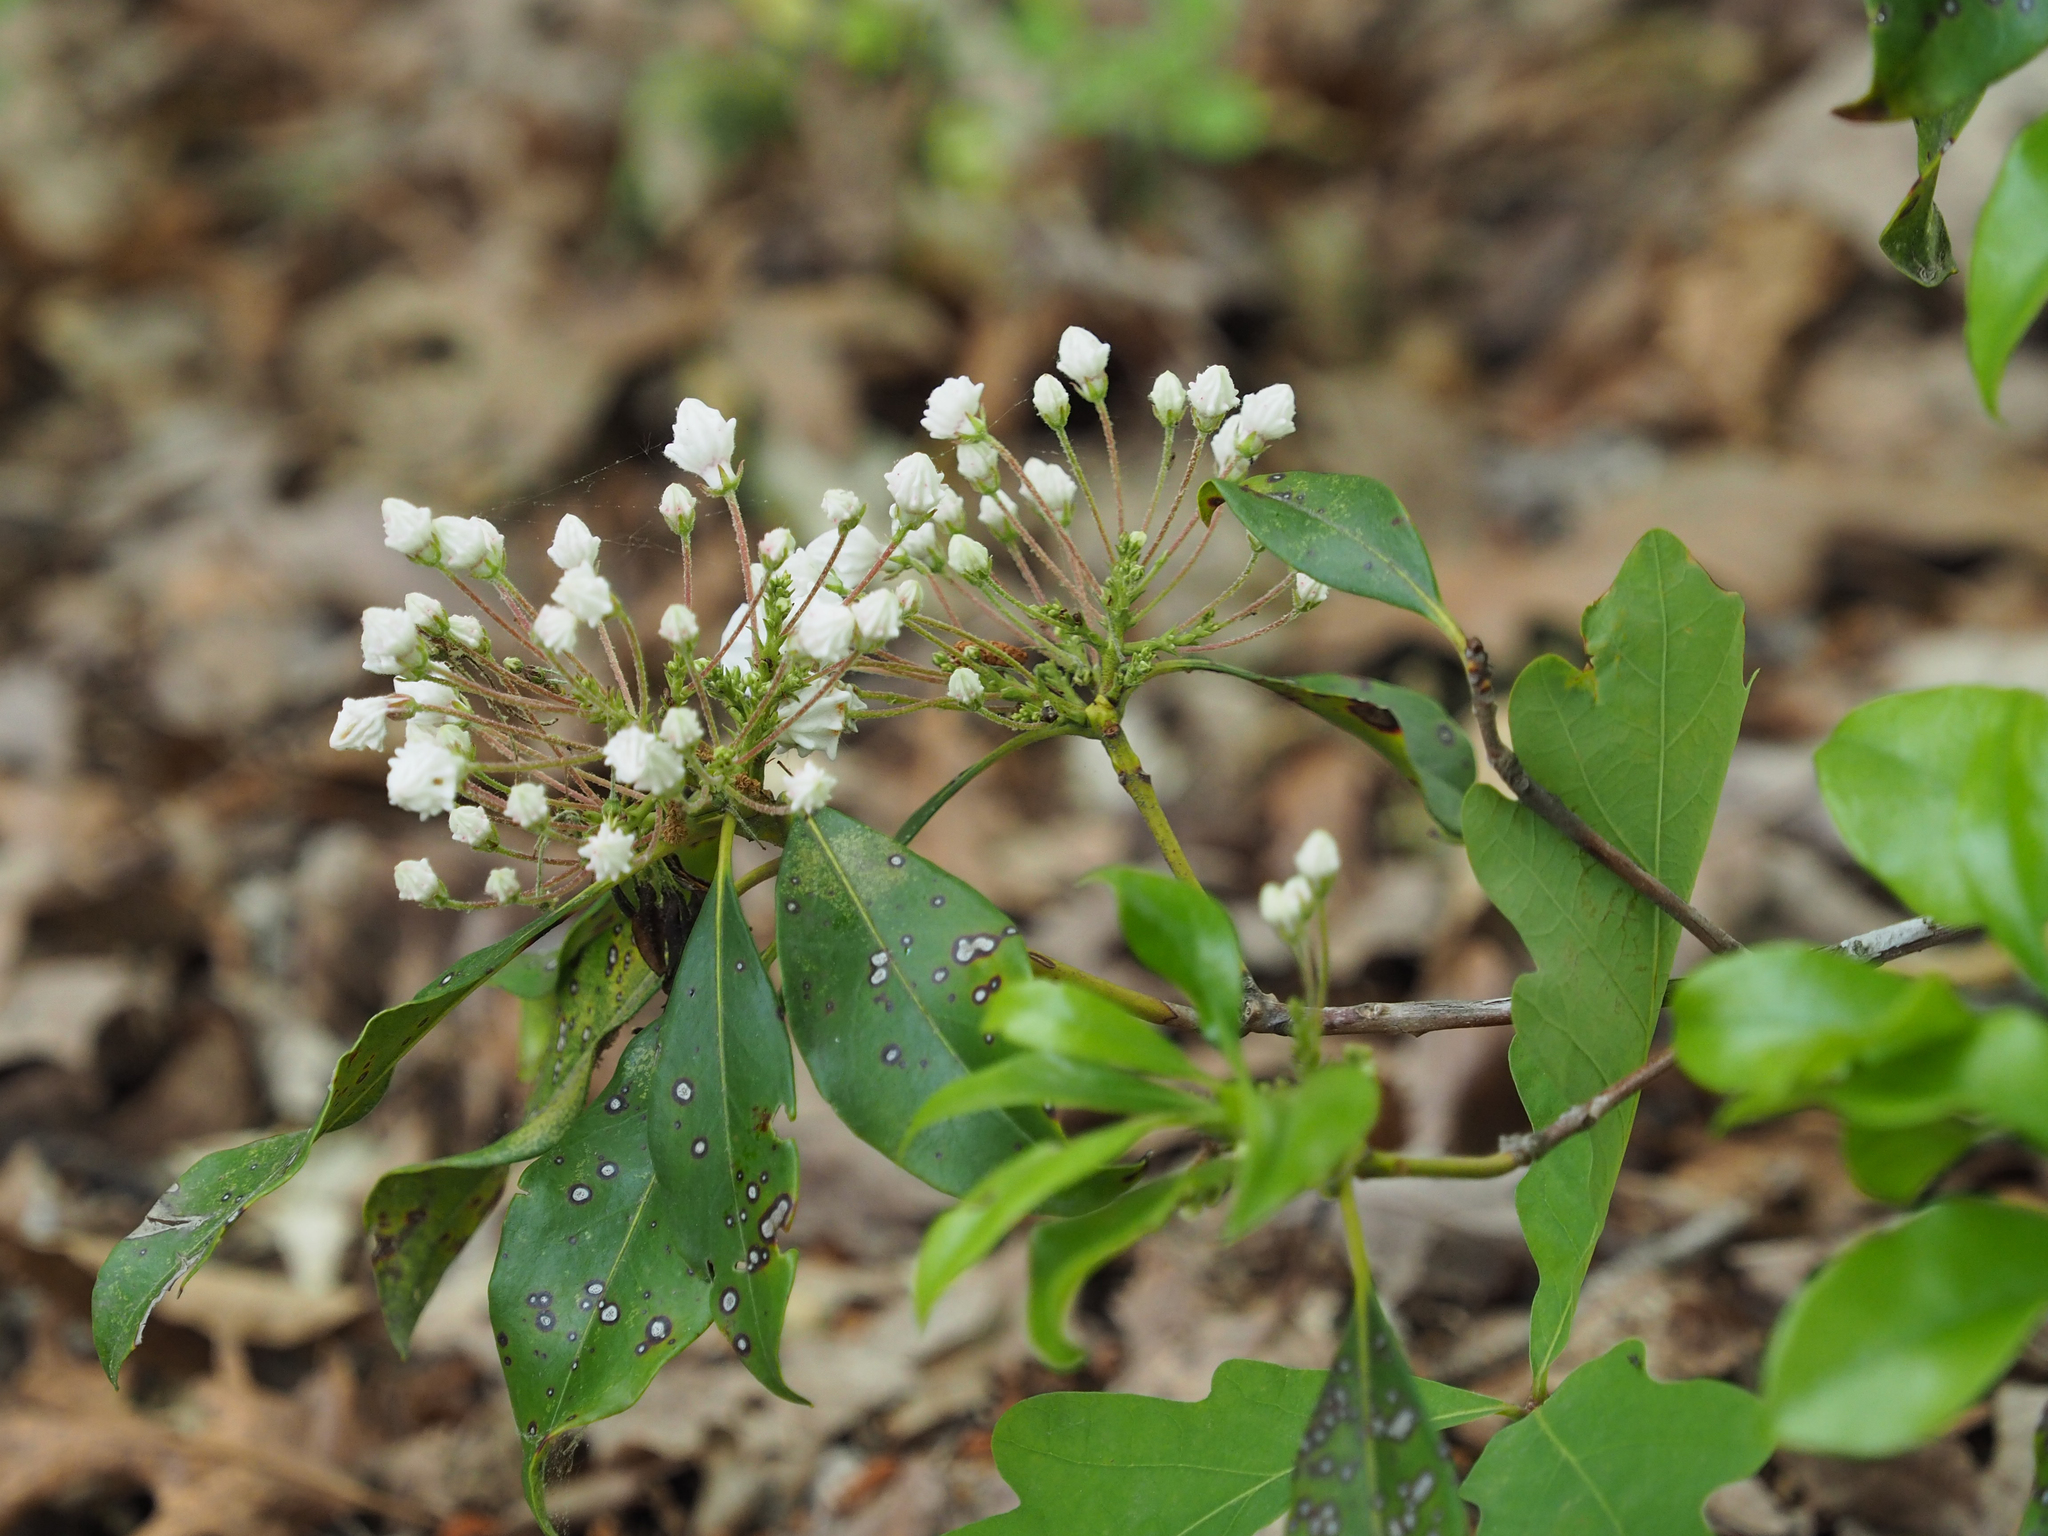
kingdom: Plantae
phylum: Tracheophyta
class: Magnoliopsida
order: Ericales
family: Ericaceae
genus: Kalmia
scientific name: Kalmia latifolia
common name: Mountain-laurel
